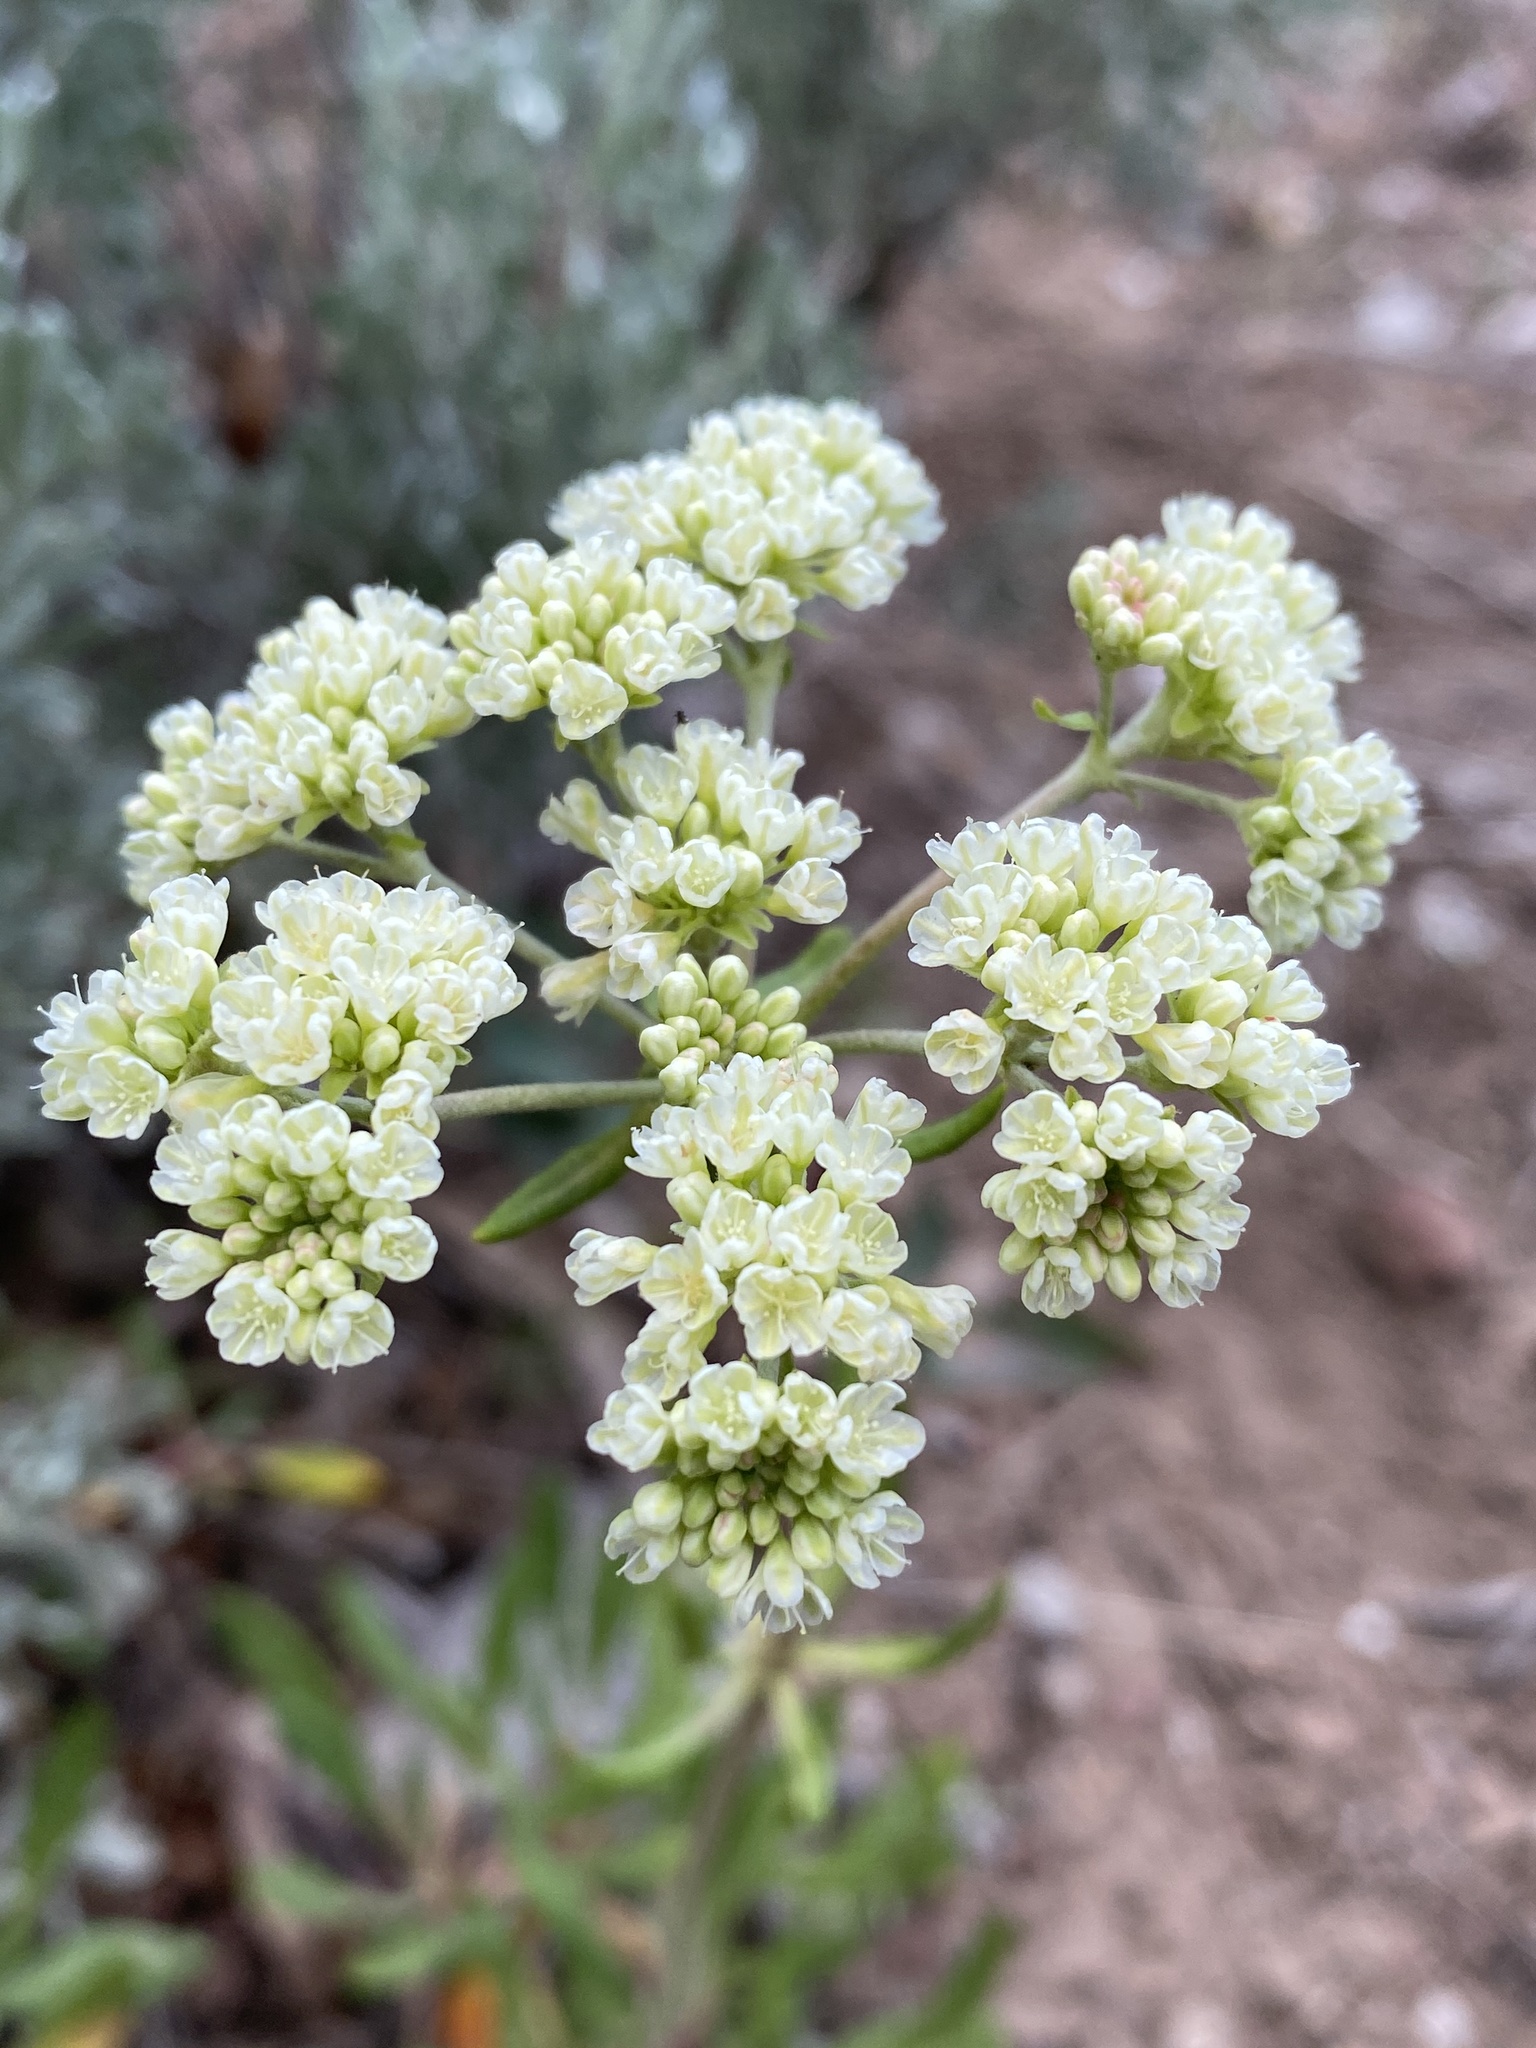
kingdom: Plantae
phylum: Tracheophyta
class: Magnoliopsida
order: Caryophyllales
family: Polygonaceae
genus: Eriogonum
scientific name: Eriogonum heracleoides
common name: Wyeth's buckwheat
